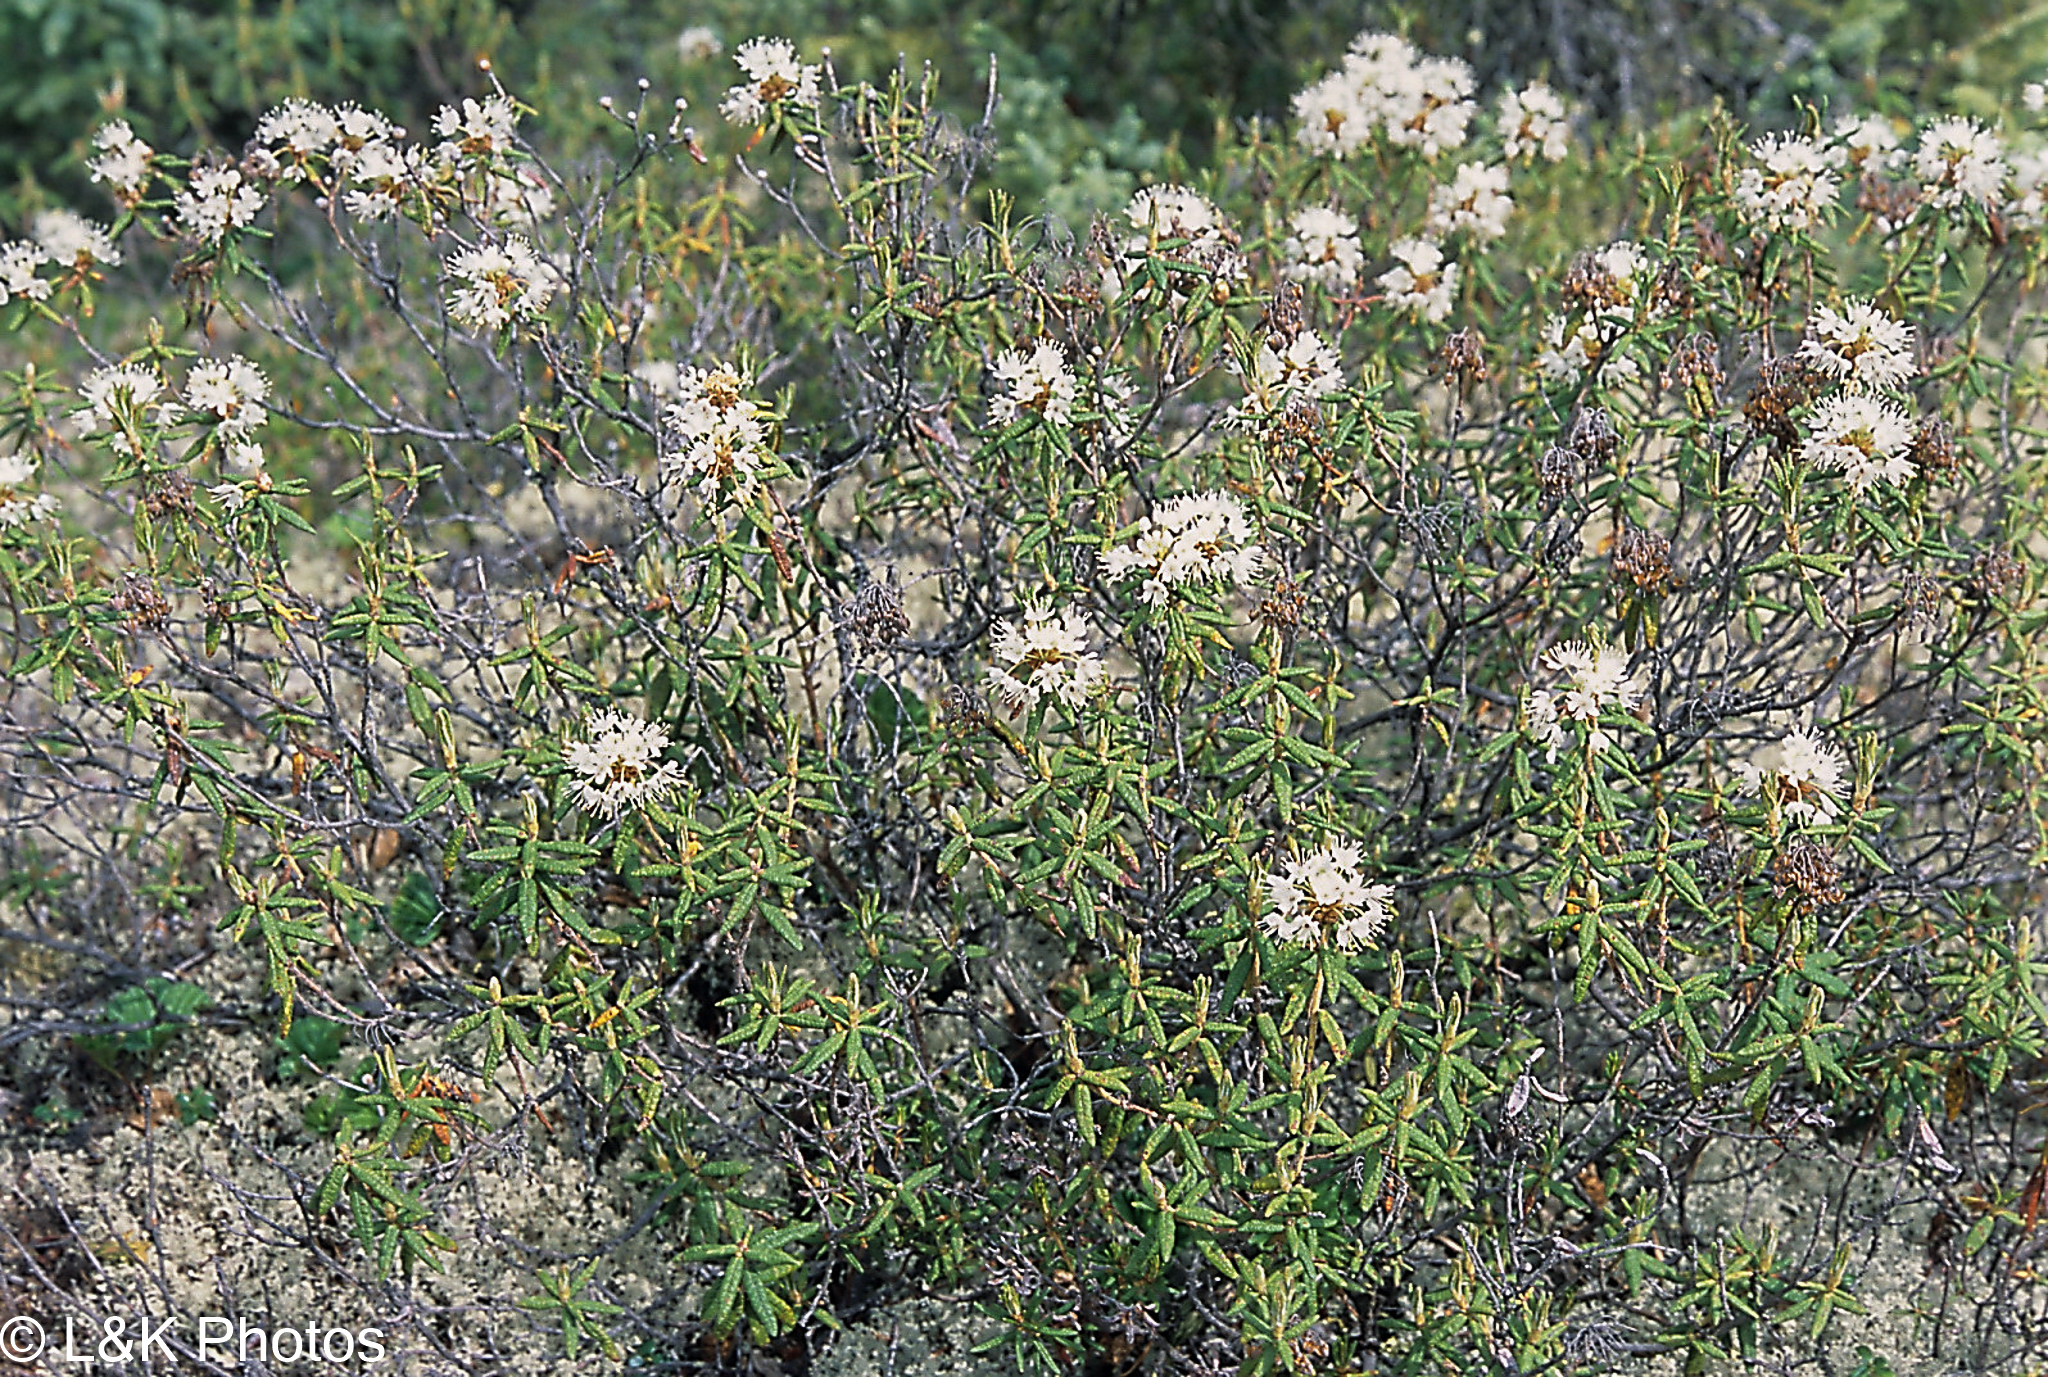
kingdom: Plantae
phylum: Tracheophyta
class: Magnoliopsida
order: Ericales
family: Ericaceae
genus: Rhododendron
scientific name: Rhododendron groenlandicum
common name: Bog labrador tea
